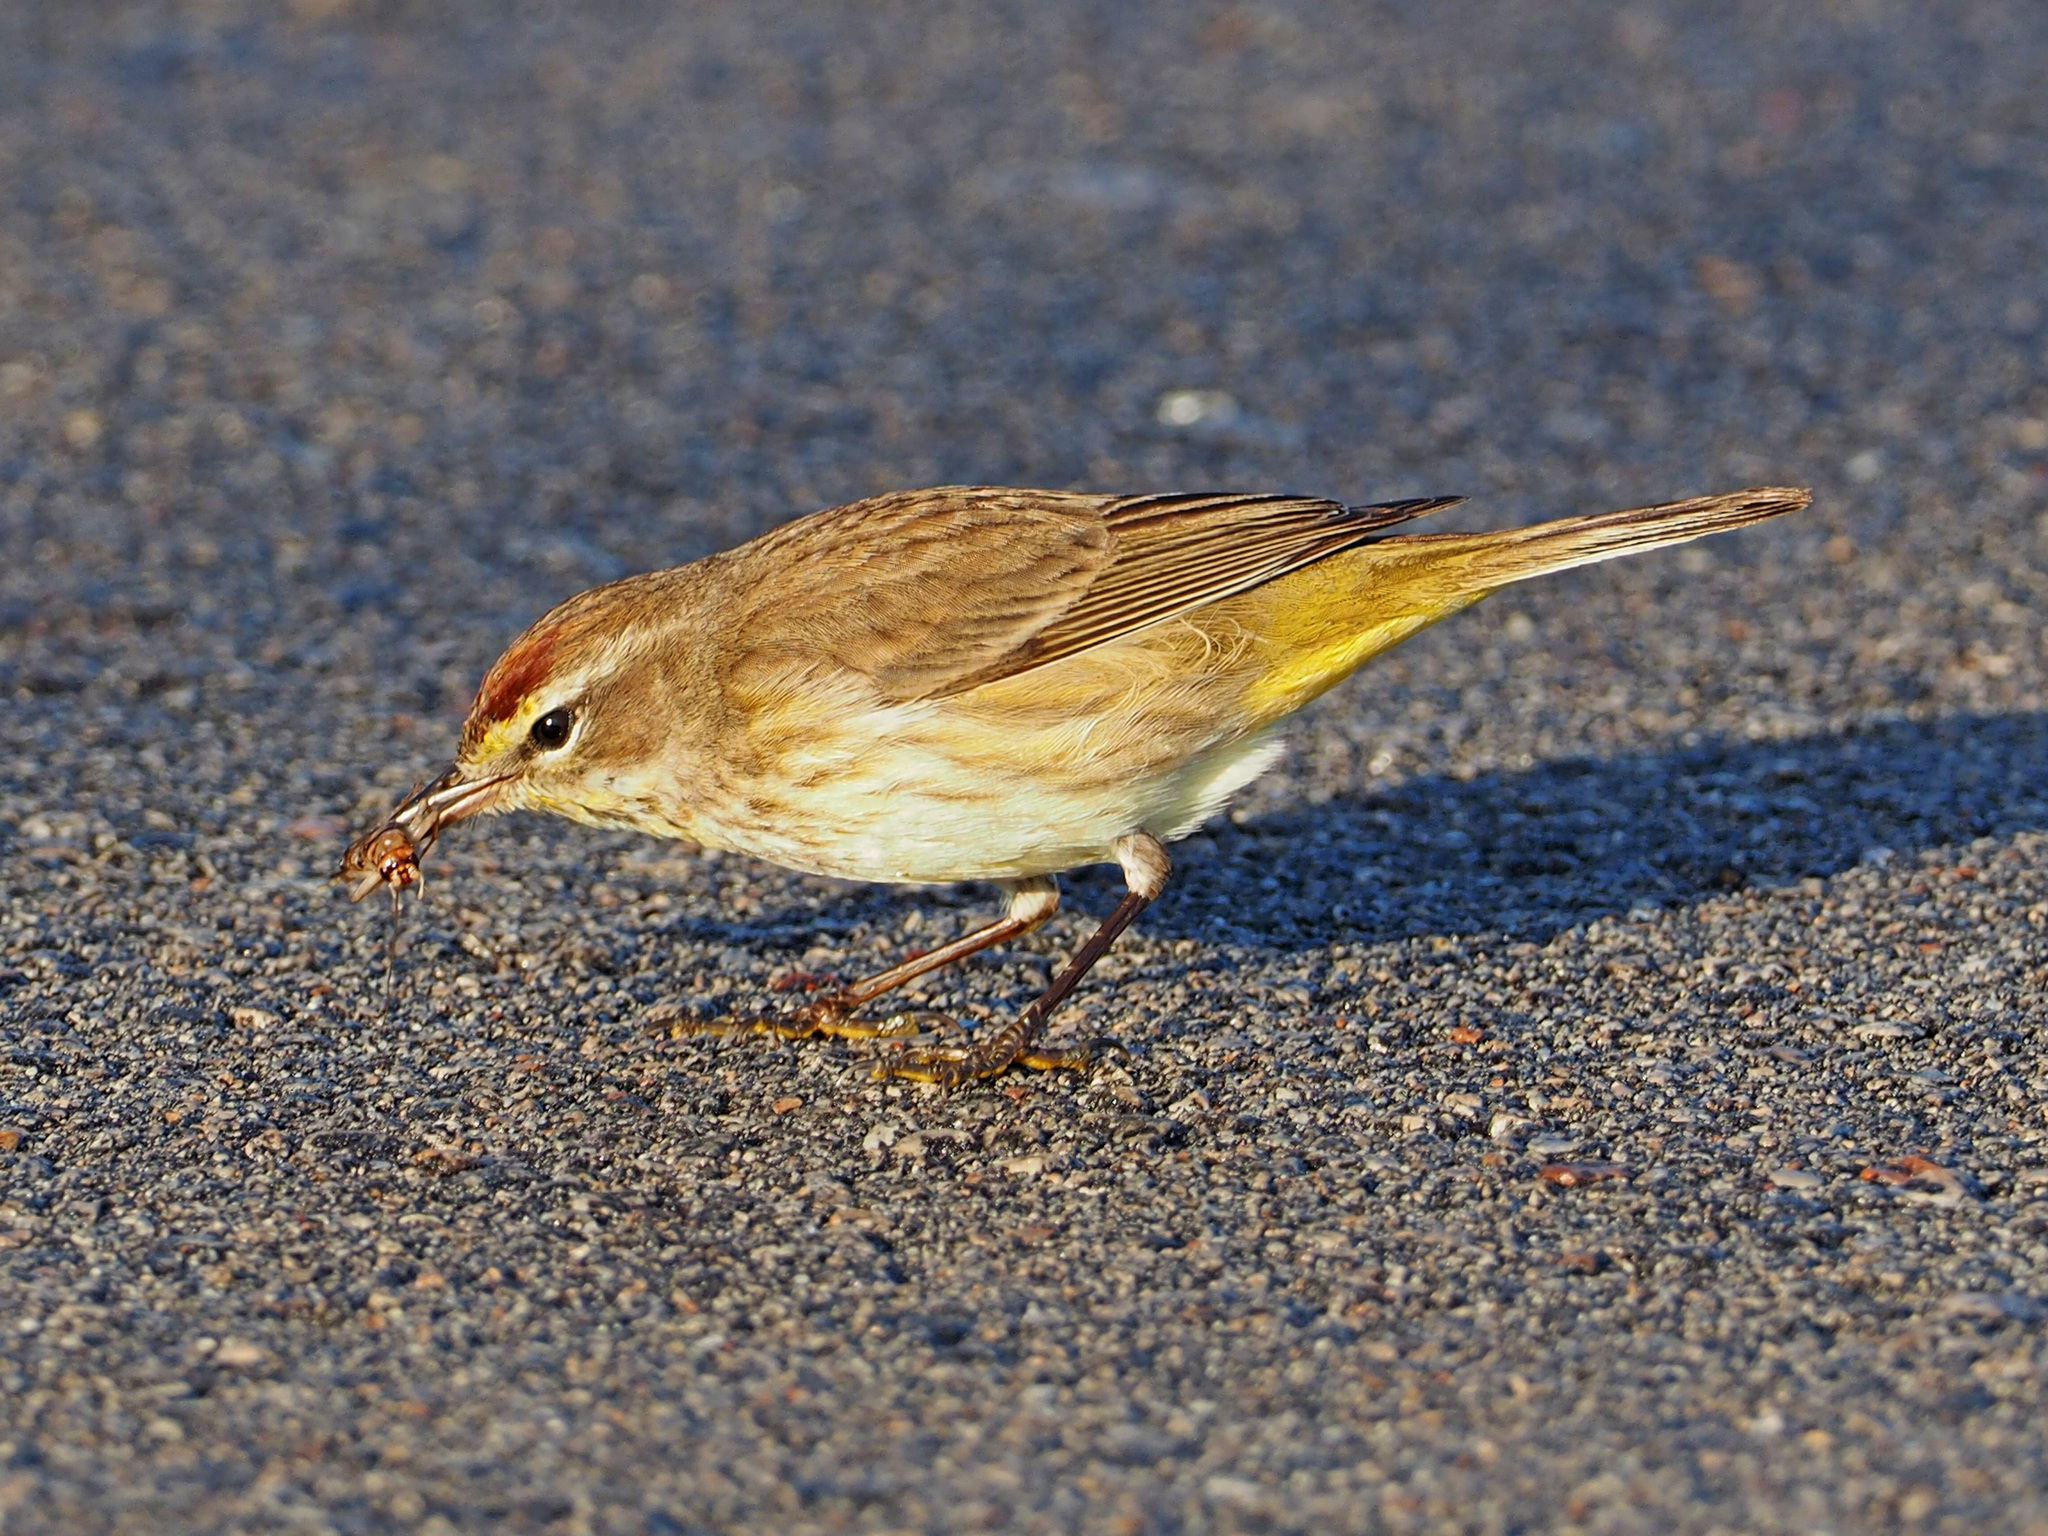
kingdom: Animalia
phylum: Chordata
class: Aves
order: Passeriformes
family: Parulidae
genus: Setophaga
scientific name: Setophaga palmarum
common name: Palm warbler
